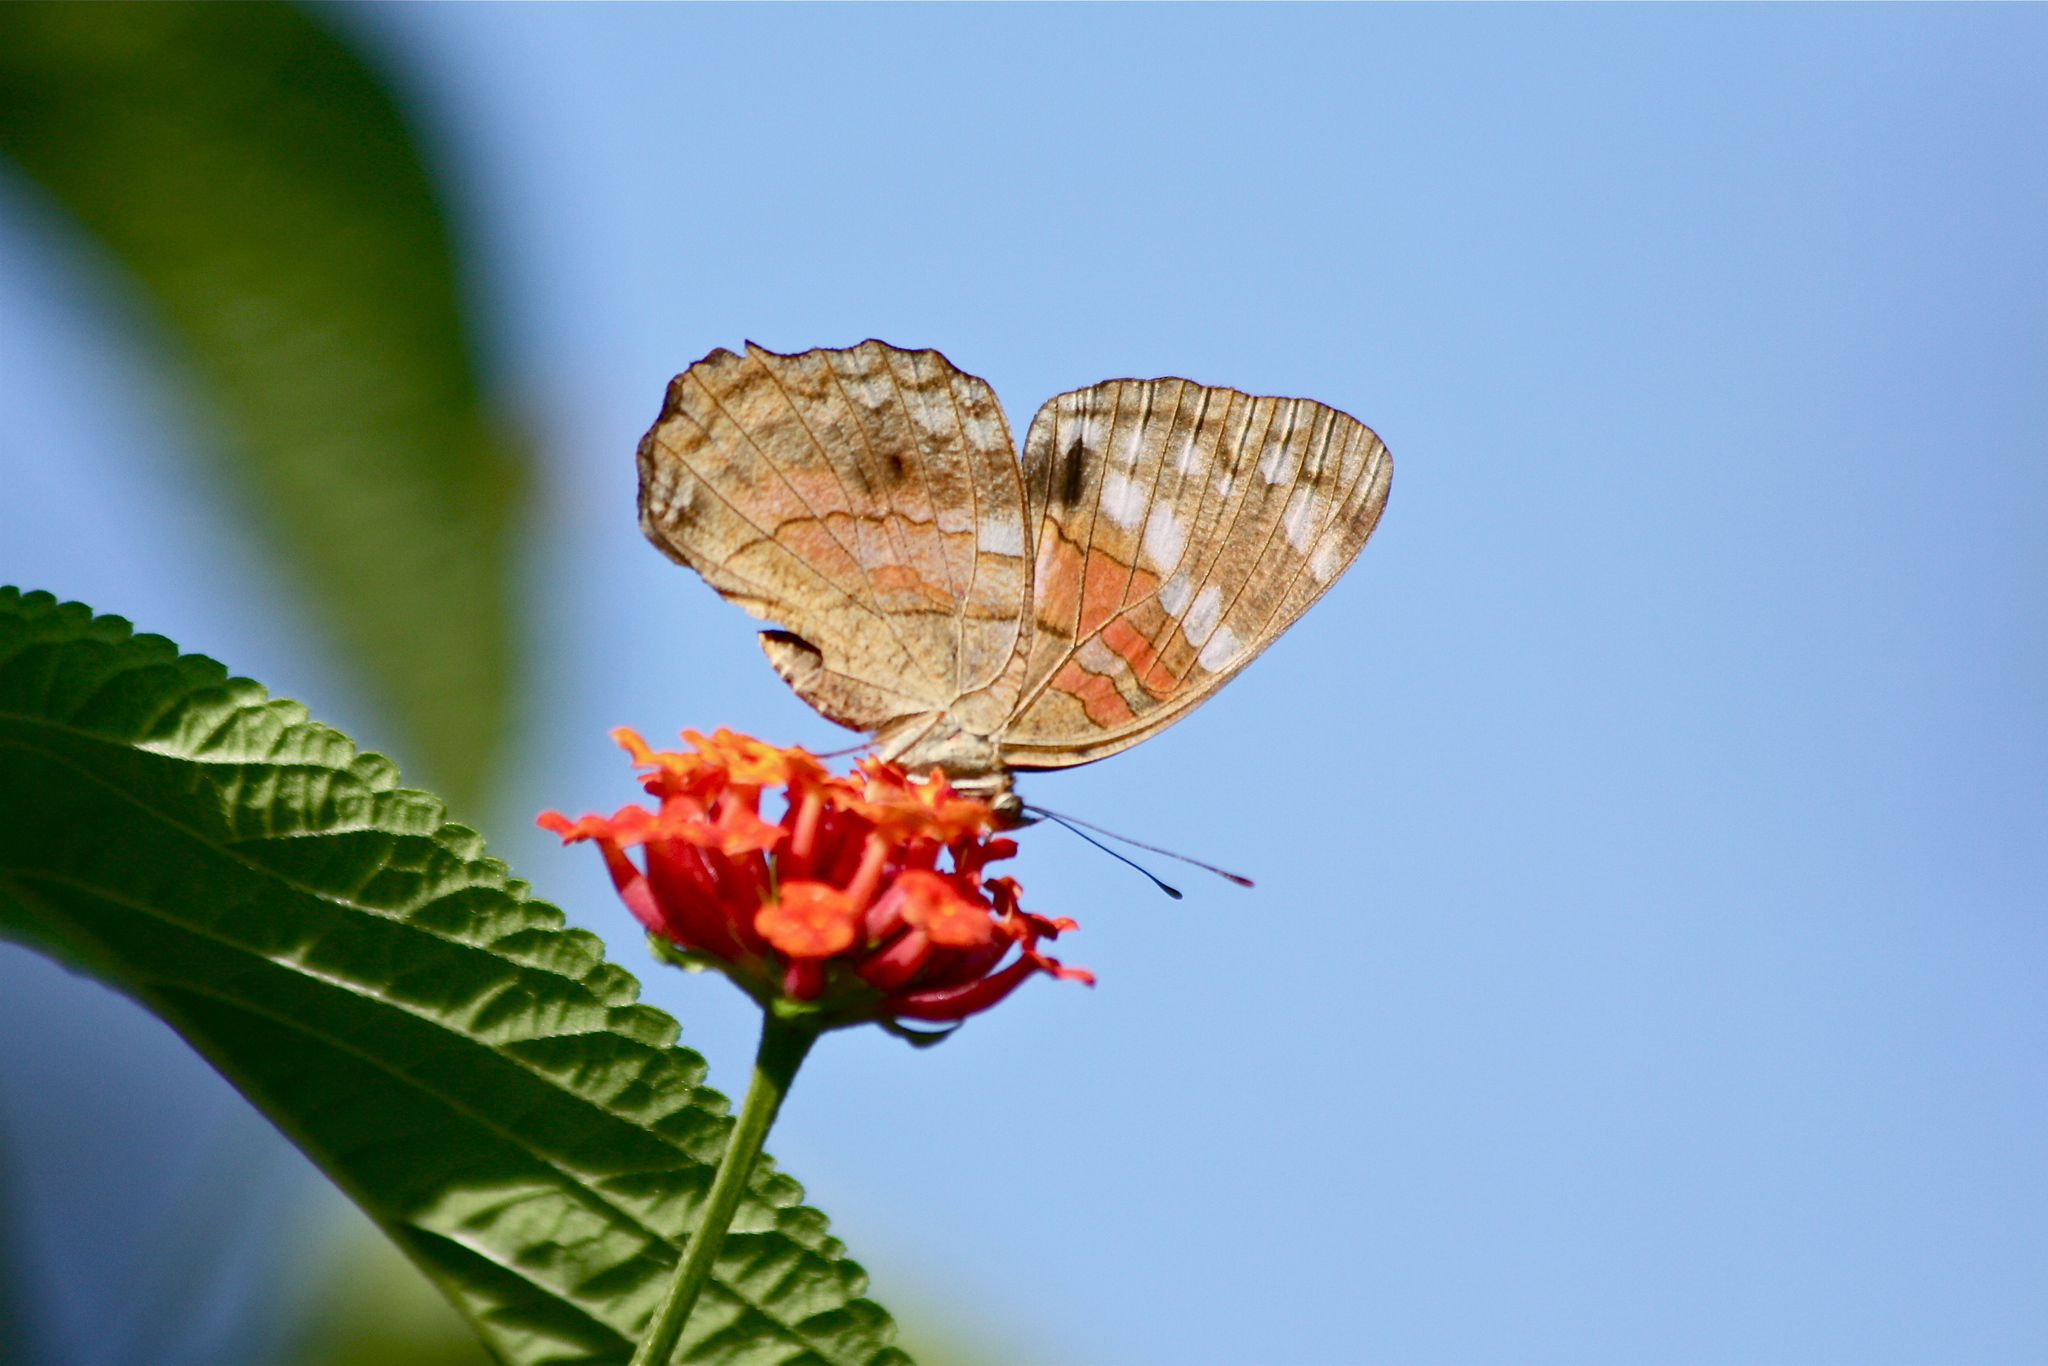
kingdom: Animalia
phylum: Arthropoda
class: Insecta
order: Lepidoptera
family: Nymphalidae
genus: Anartia
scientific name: Anartia amathea
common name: Red peacock
